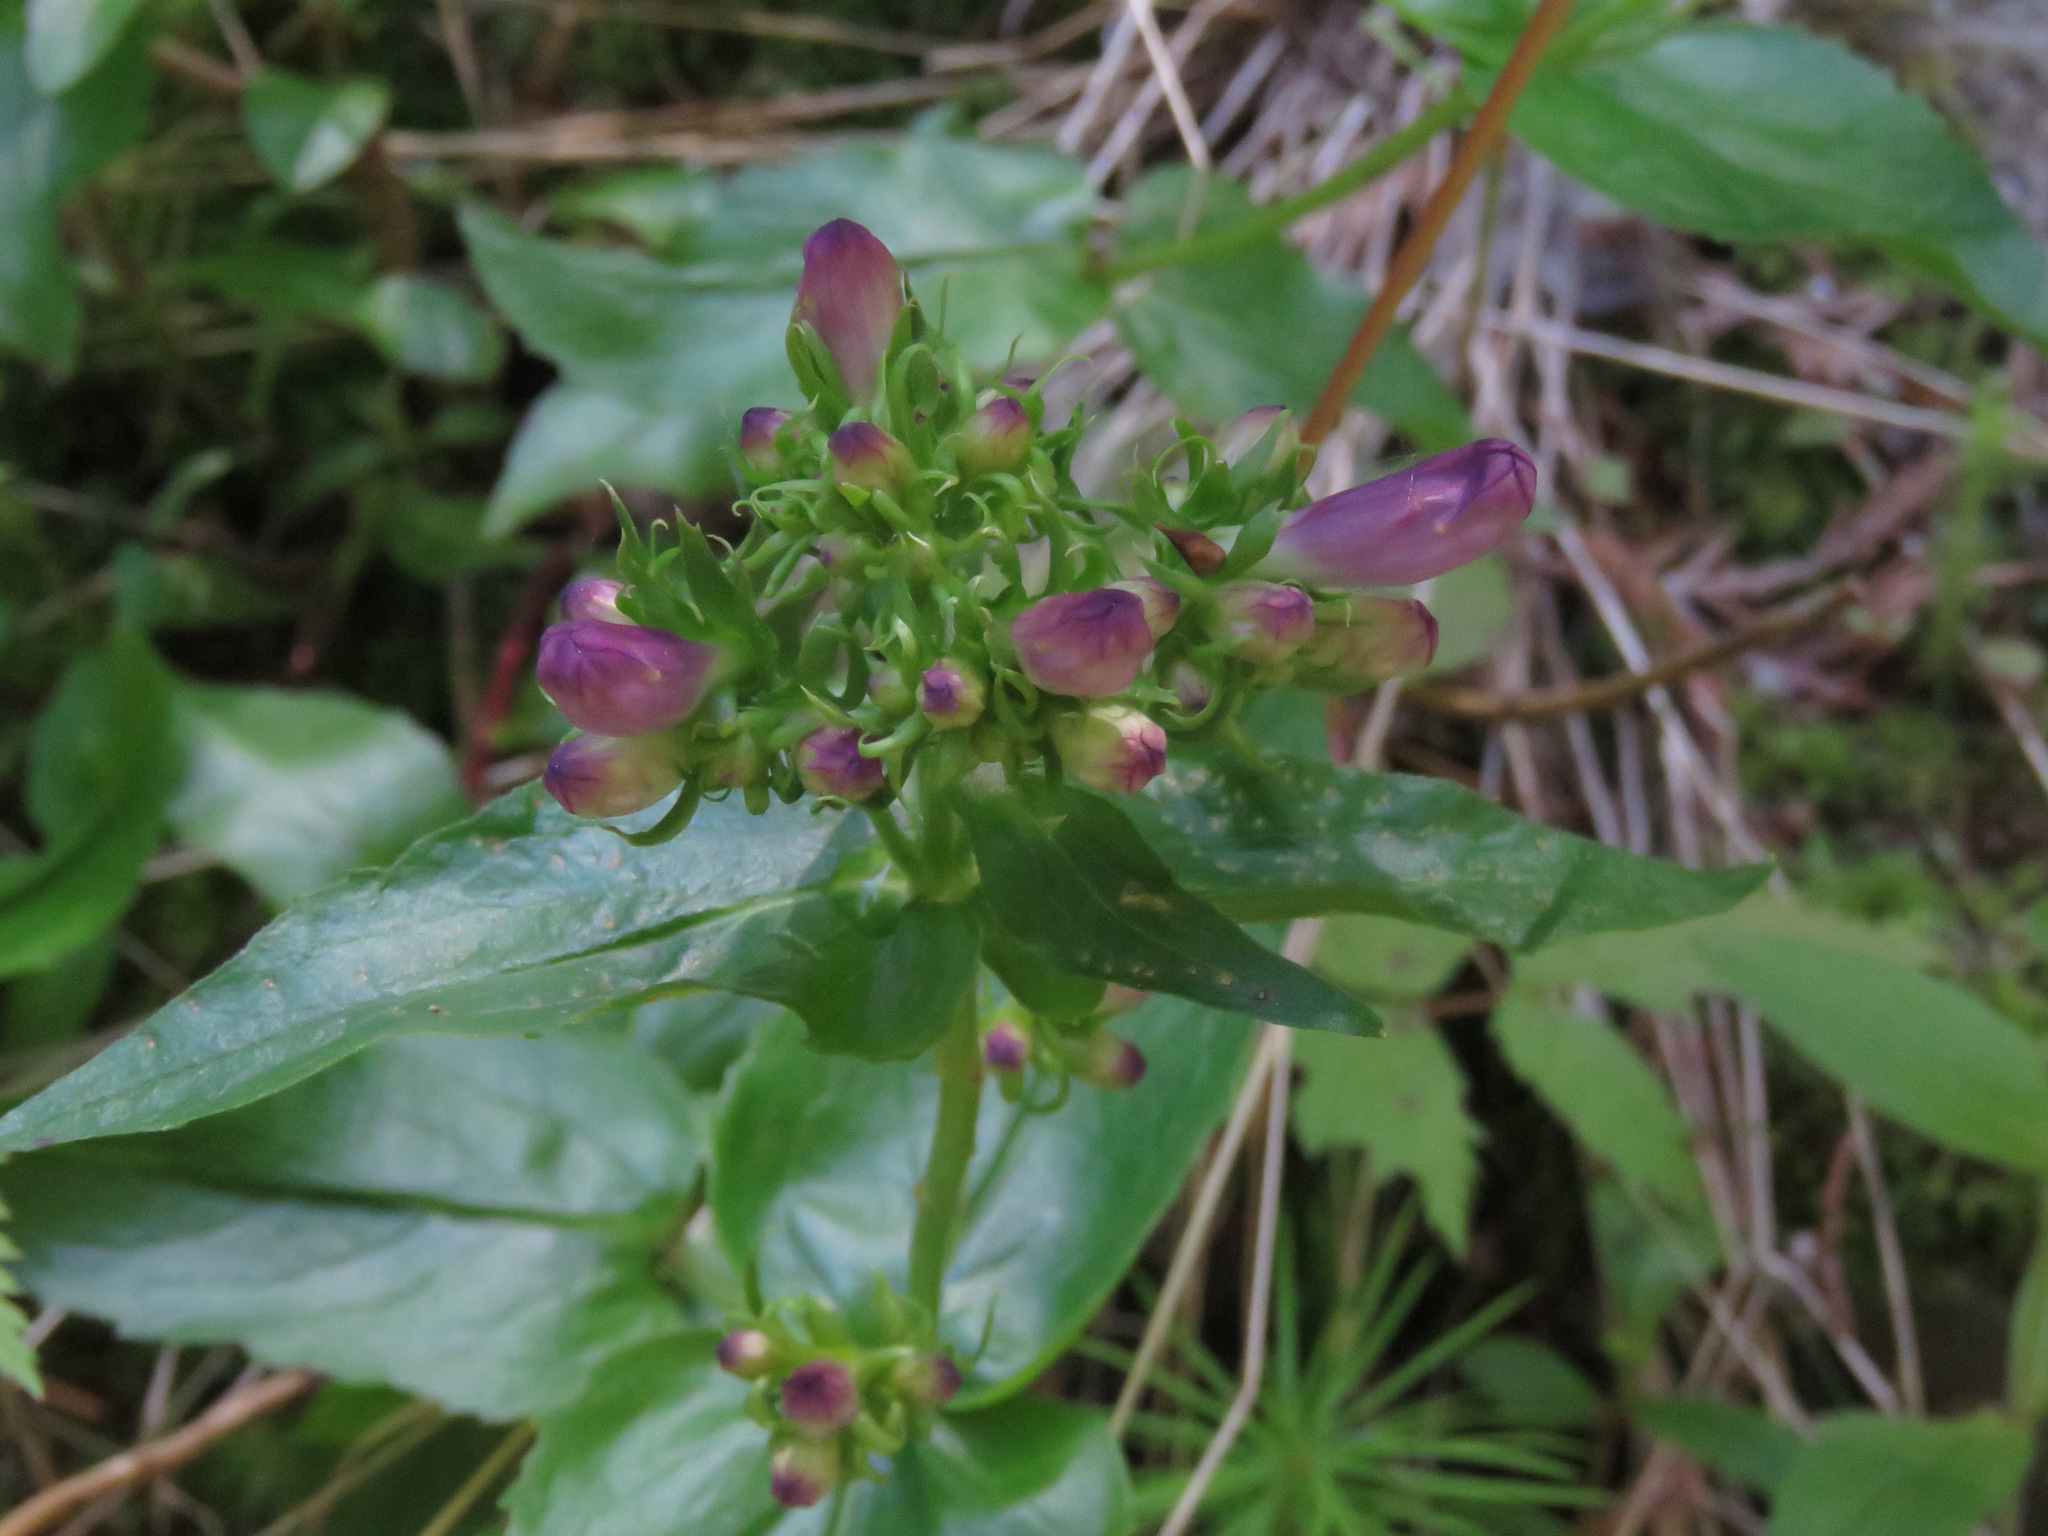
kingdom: Plantae
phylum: Tracheophyta
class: Magnoliopsida
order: Lamiales
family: Plantaginaceae
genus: Penstemon
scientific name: Penstemon serrulatus
